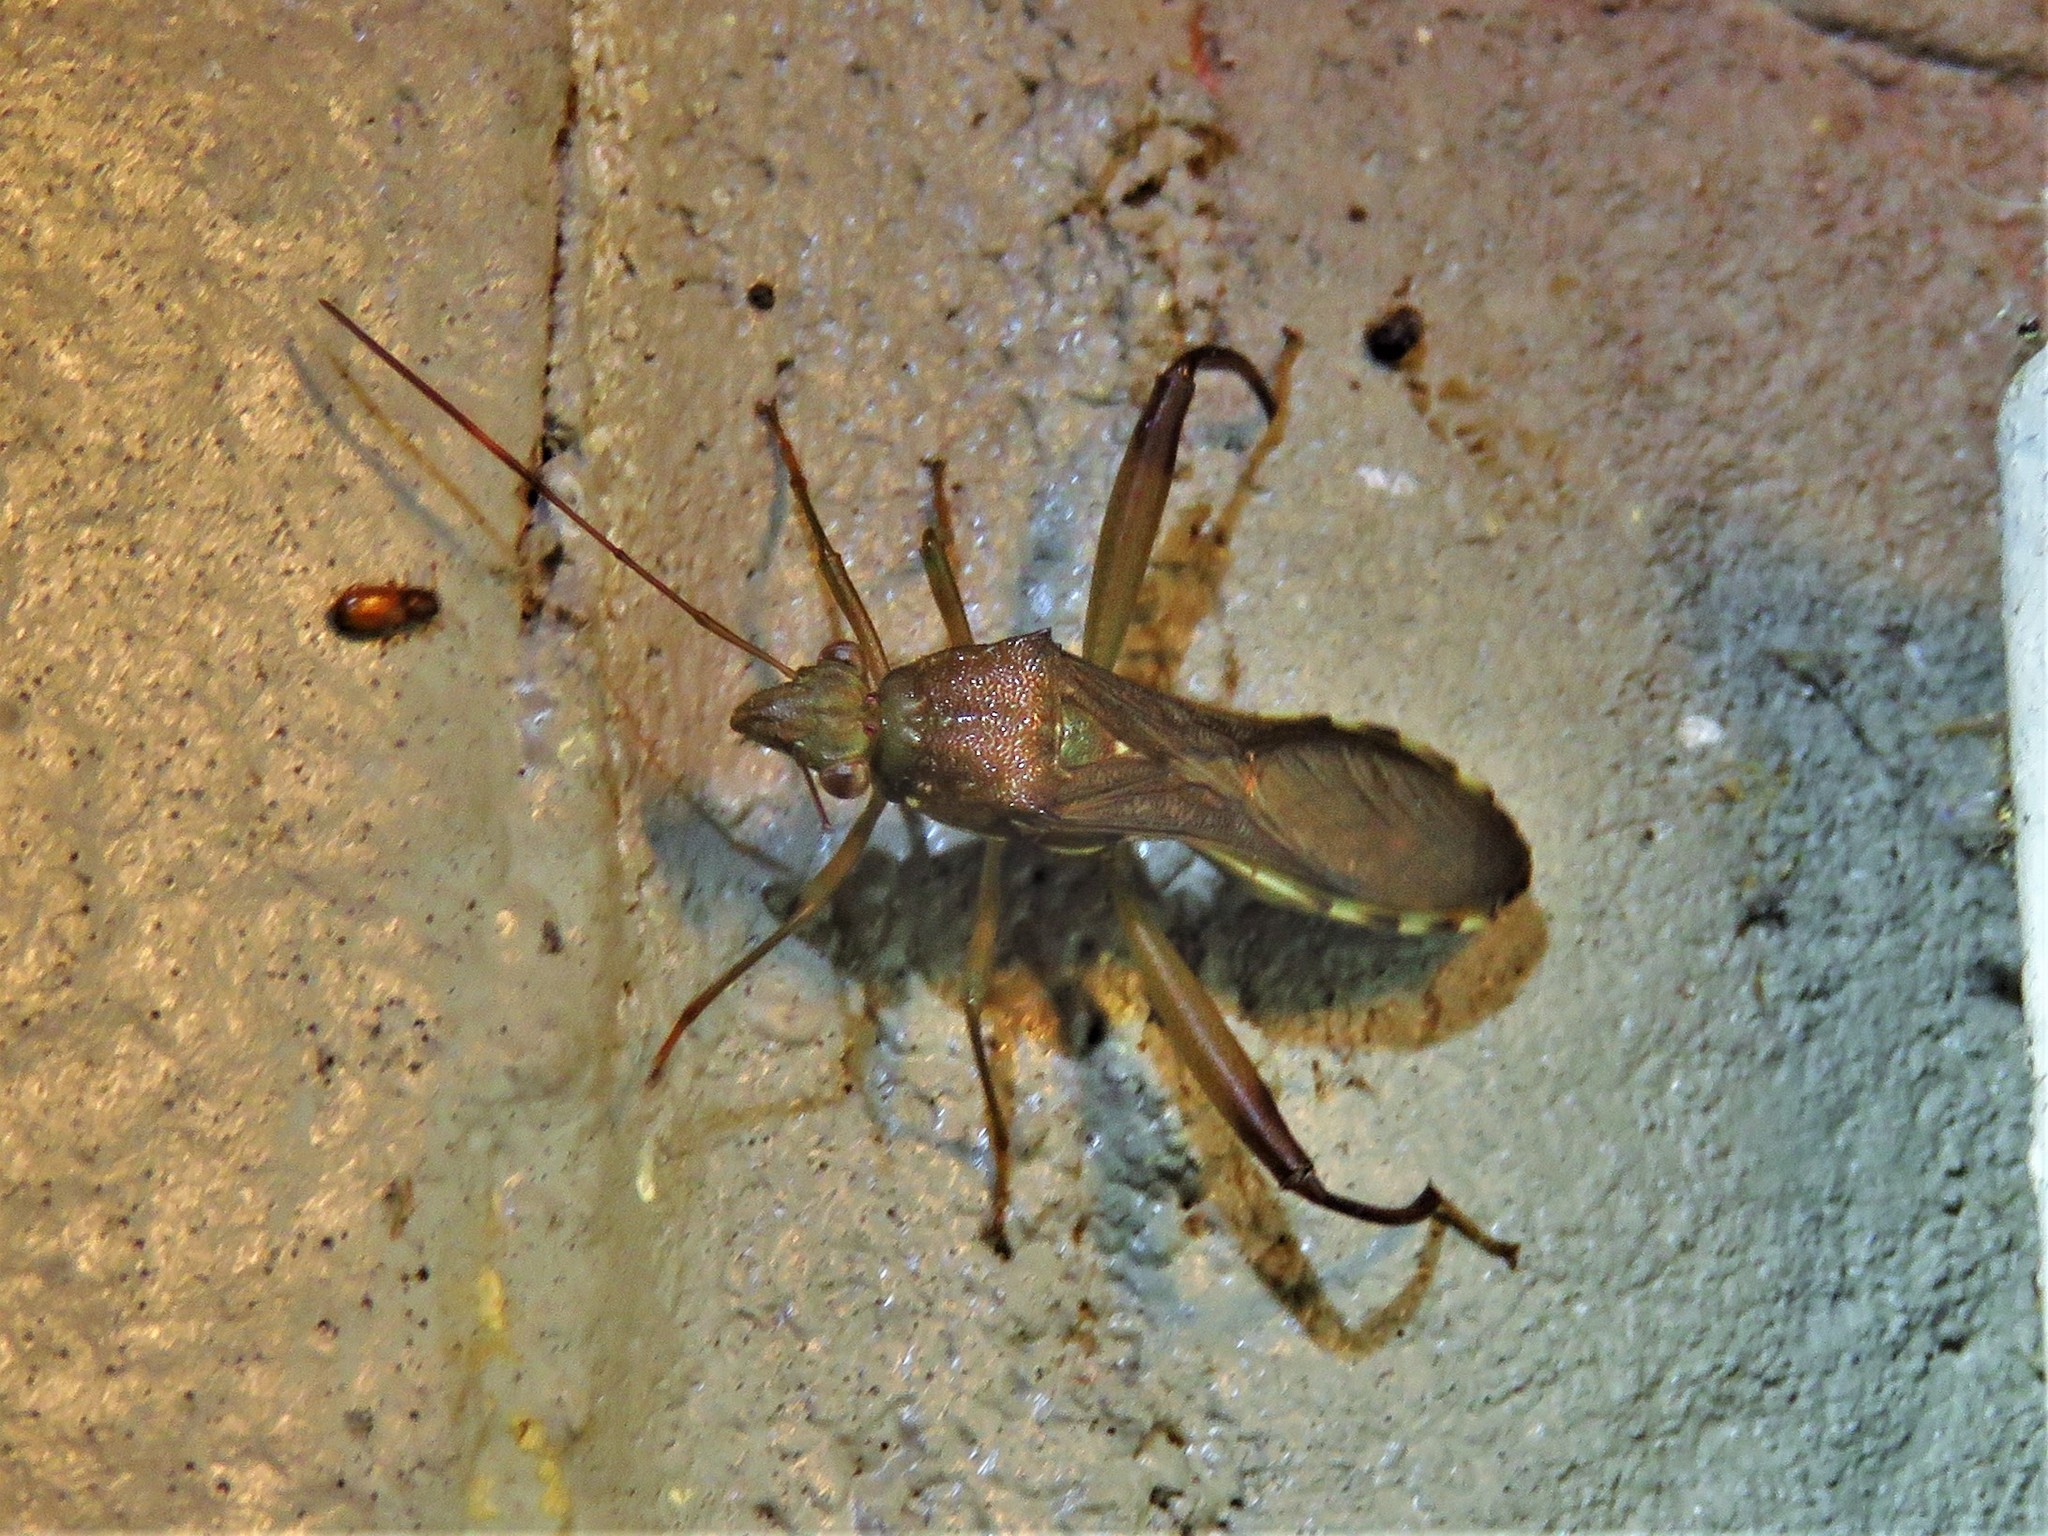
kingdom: Animalia
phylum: Arthropoda
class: Insecta
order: Hemiptera
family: Alydidae
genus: Hyalymenus
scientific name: Hyalymenus tarsatus
